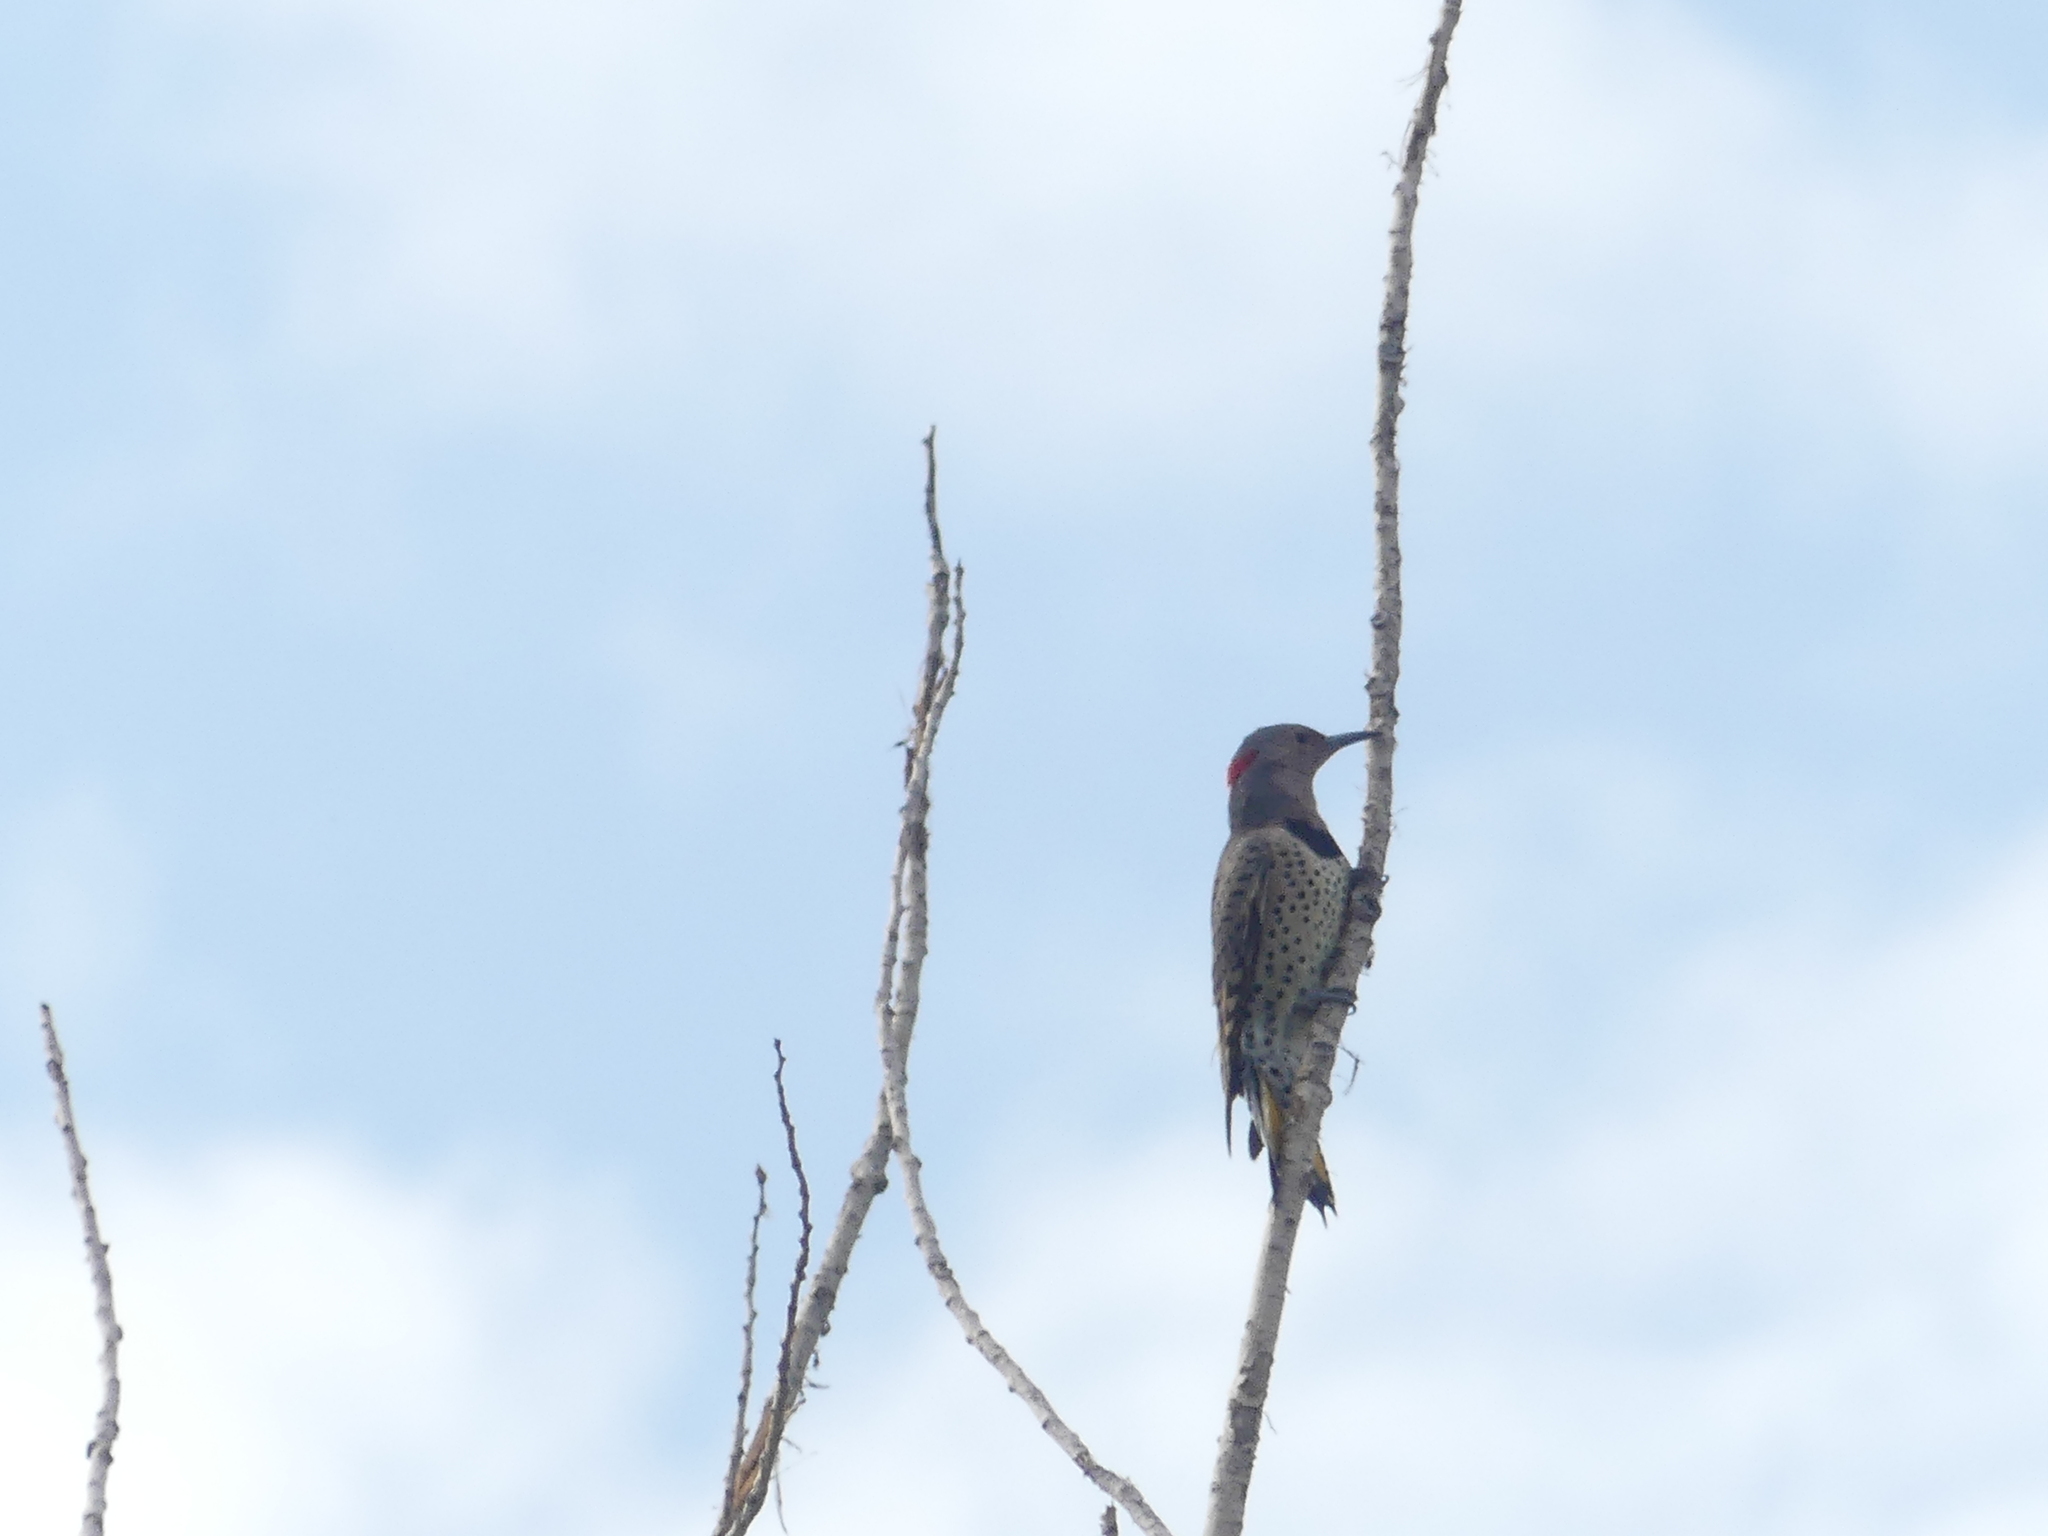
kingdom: Animalia
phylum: Chordata
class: Aves
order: Piciformes
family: Picidae
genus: Colaptes
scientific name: Colaptes auratus
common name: Northern flicker
